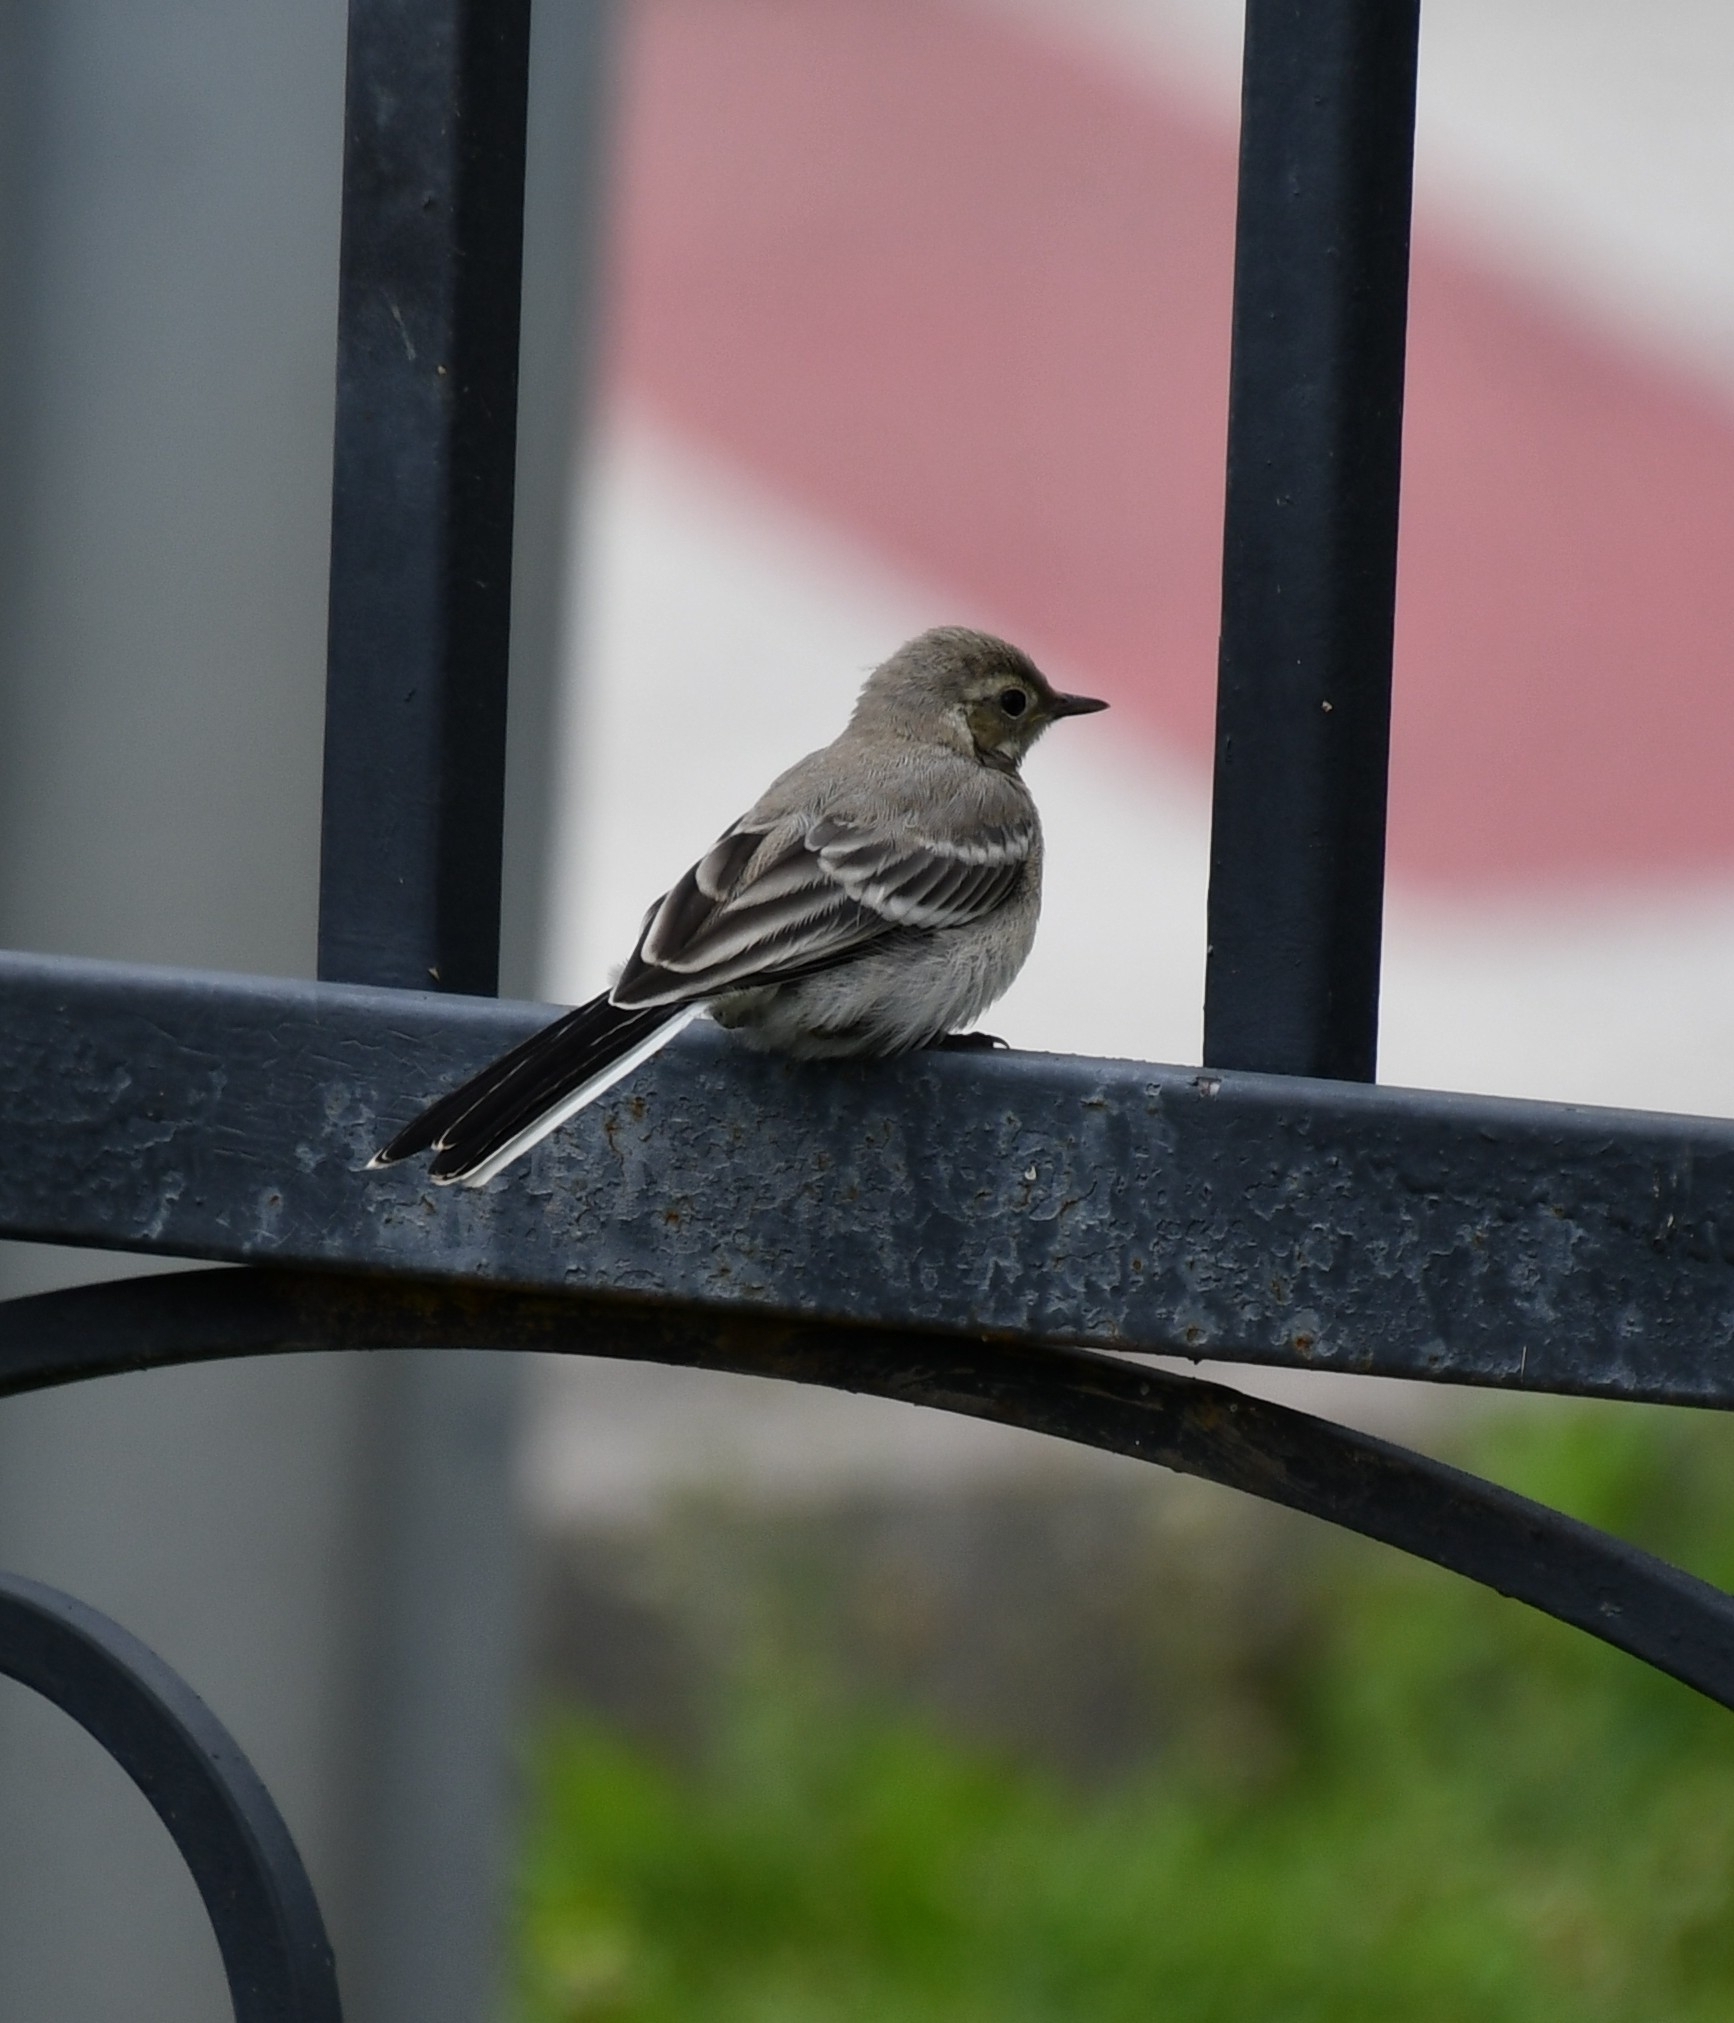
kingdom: Animalia
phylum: Chordata
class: Aves
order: Passeriformes
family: Motacillidae
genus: Motacilla
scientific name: Motacilla alba
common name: White wagtail
